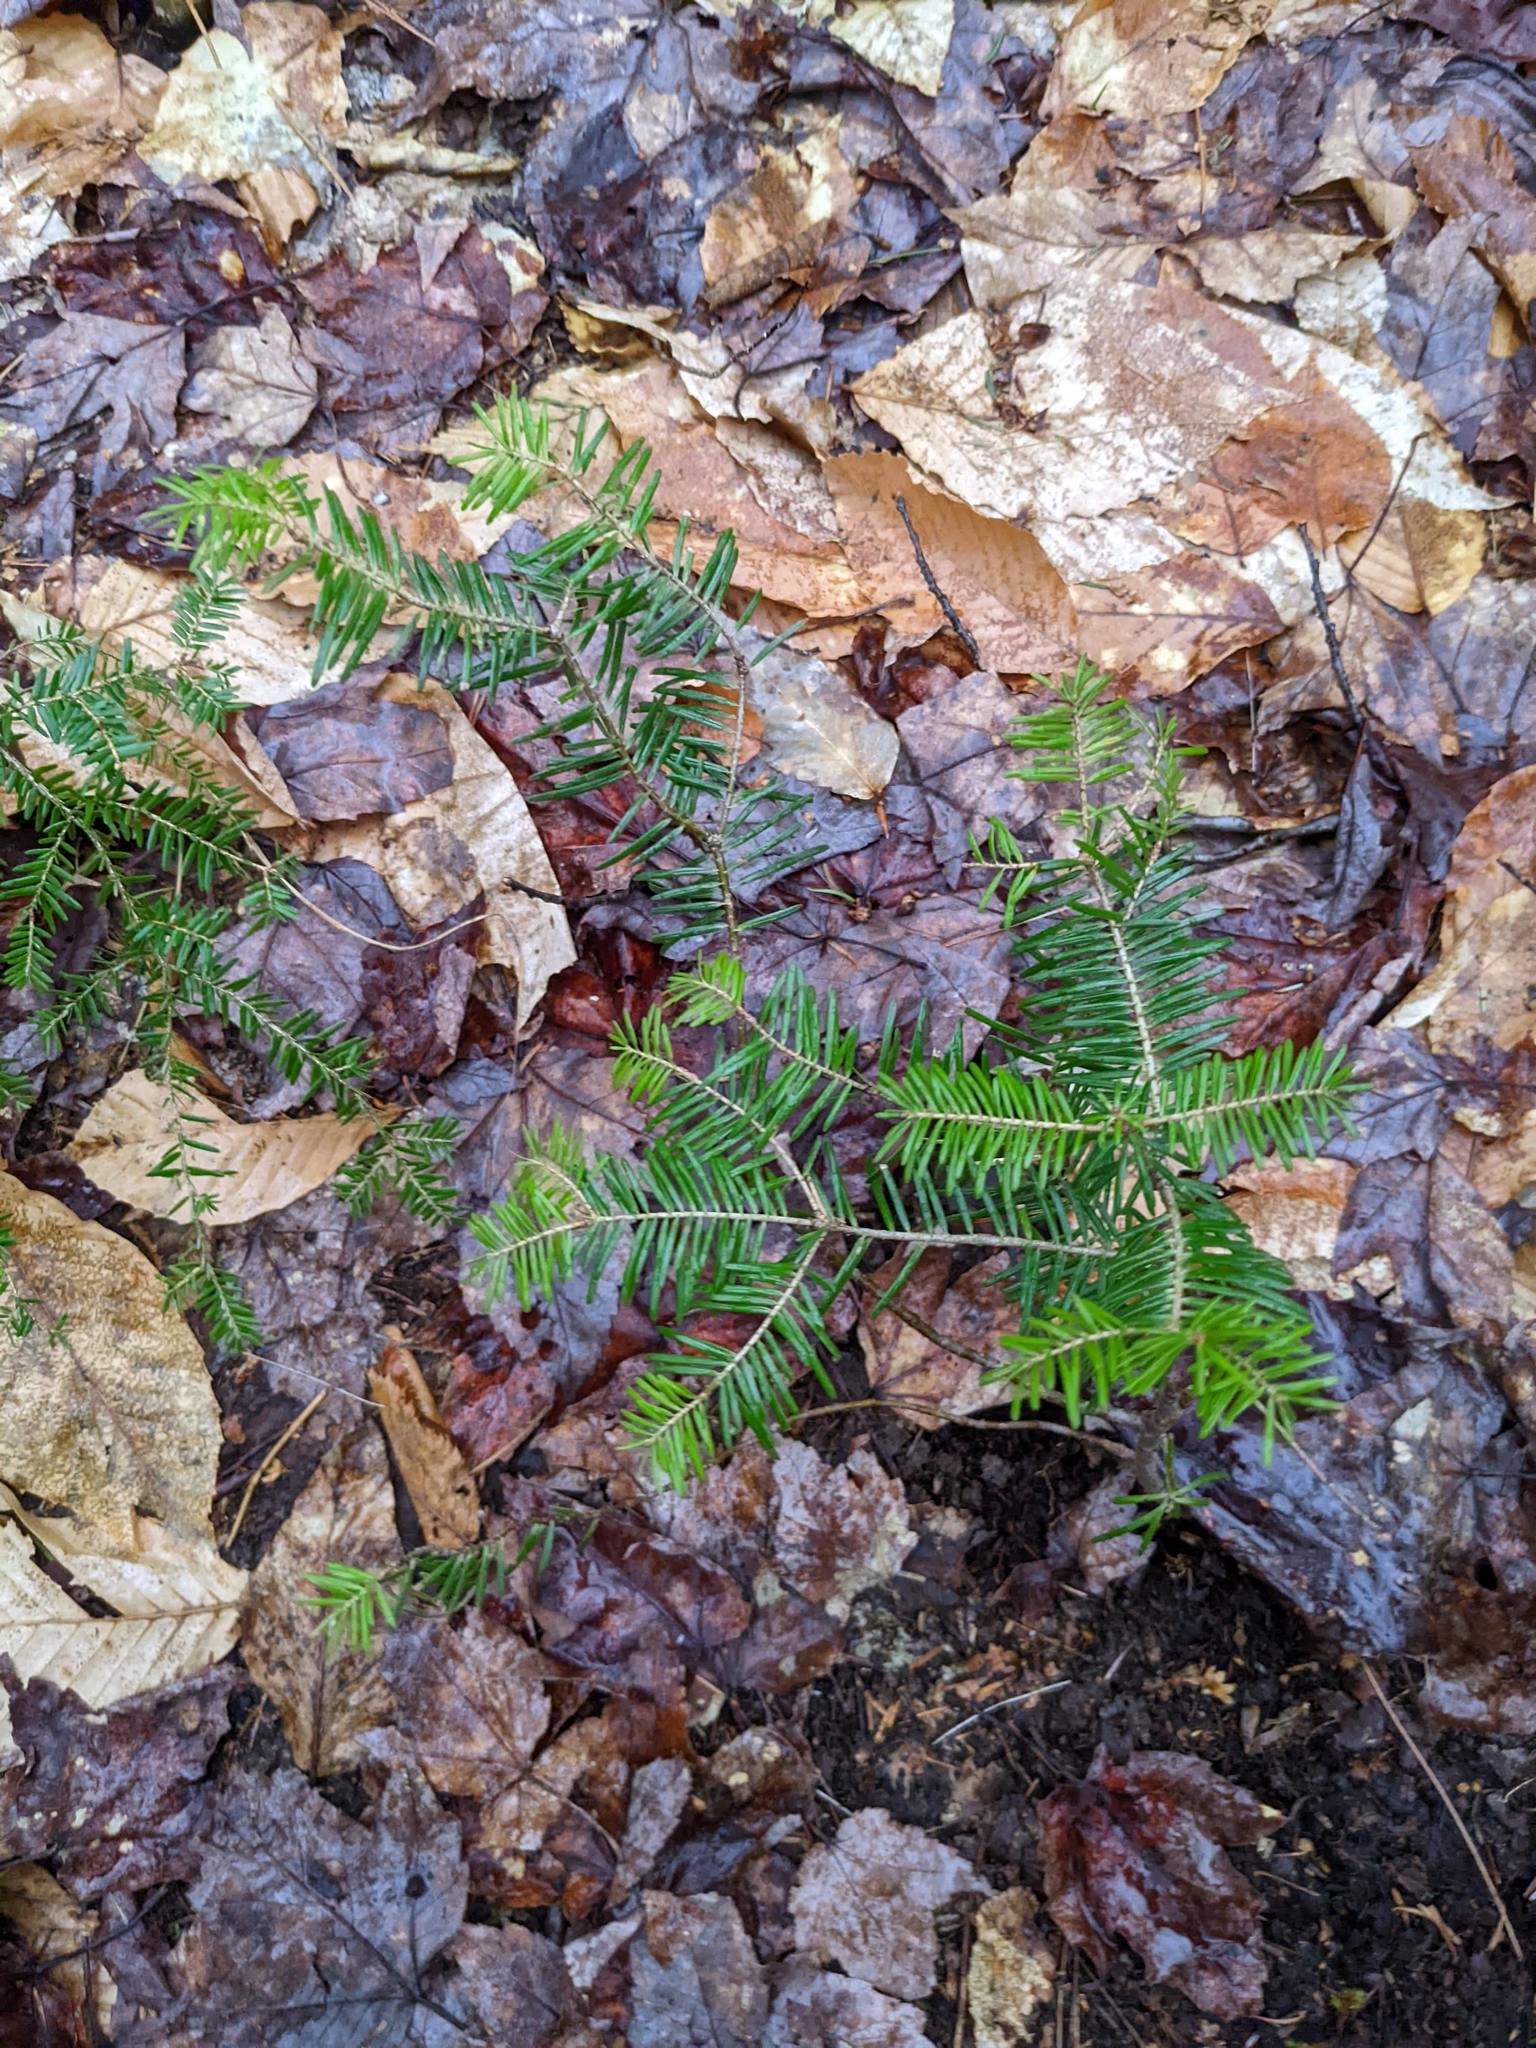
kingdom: Plantae
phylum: Tracheophyta
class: Pinopsida
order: Pinales
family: Pinaceae
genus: Abies
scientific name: Abies balsamea
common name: Balsam fir
